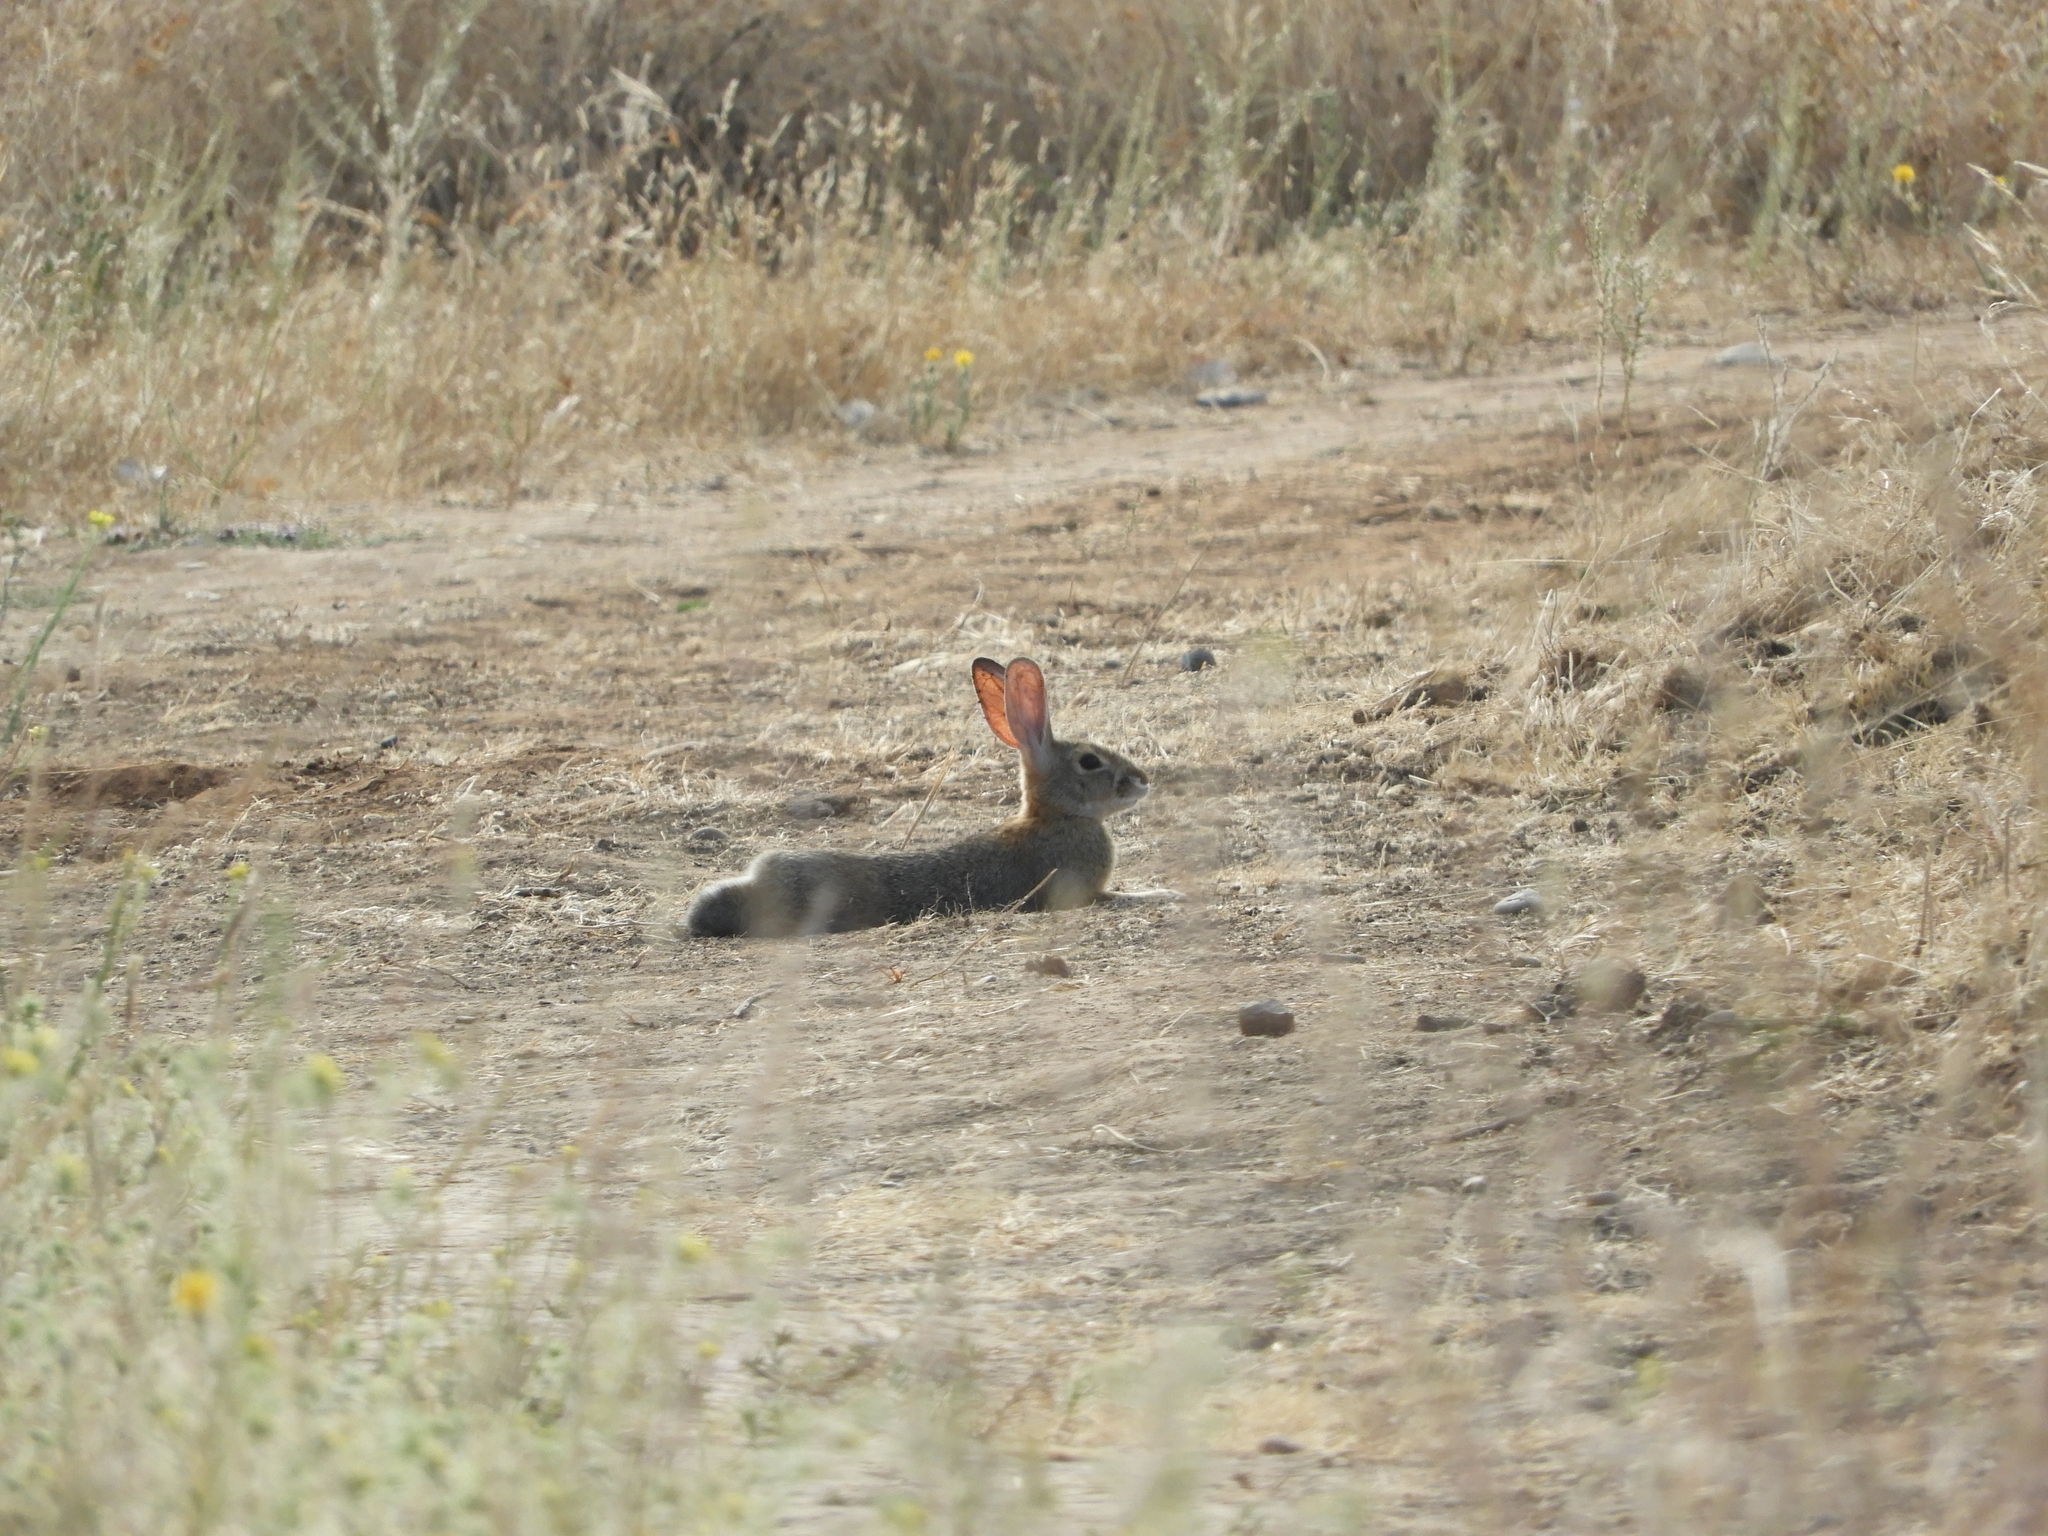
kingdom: Animalia
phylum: Chordata
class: Mammalia
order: Lagomorpha
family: Leporidae
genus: Sylvilagus
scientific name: Sylvilagus audubonii
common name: Desert cottontail
